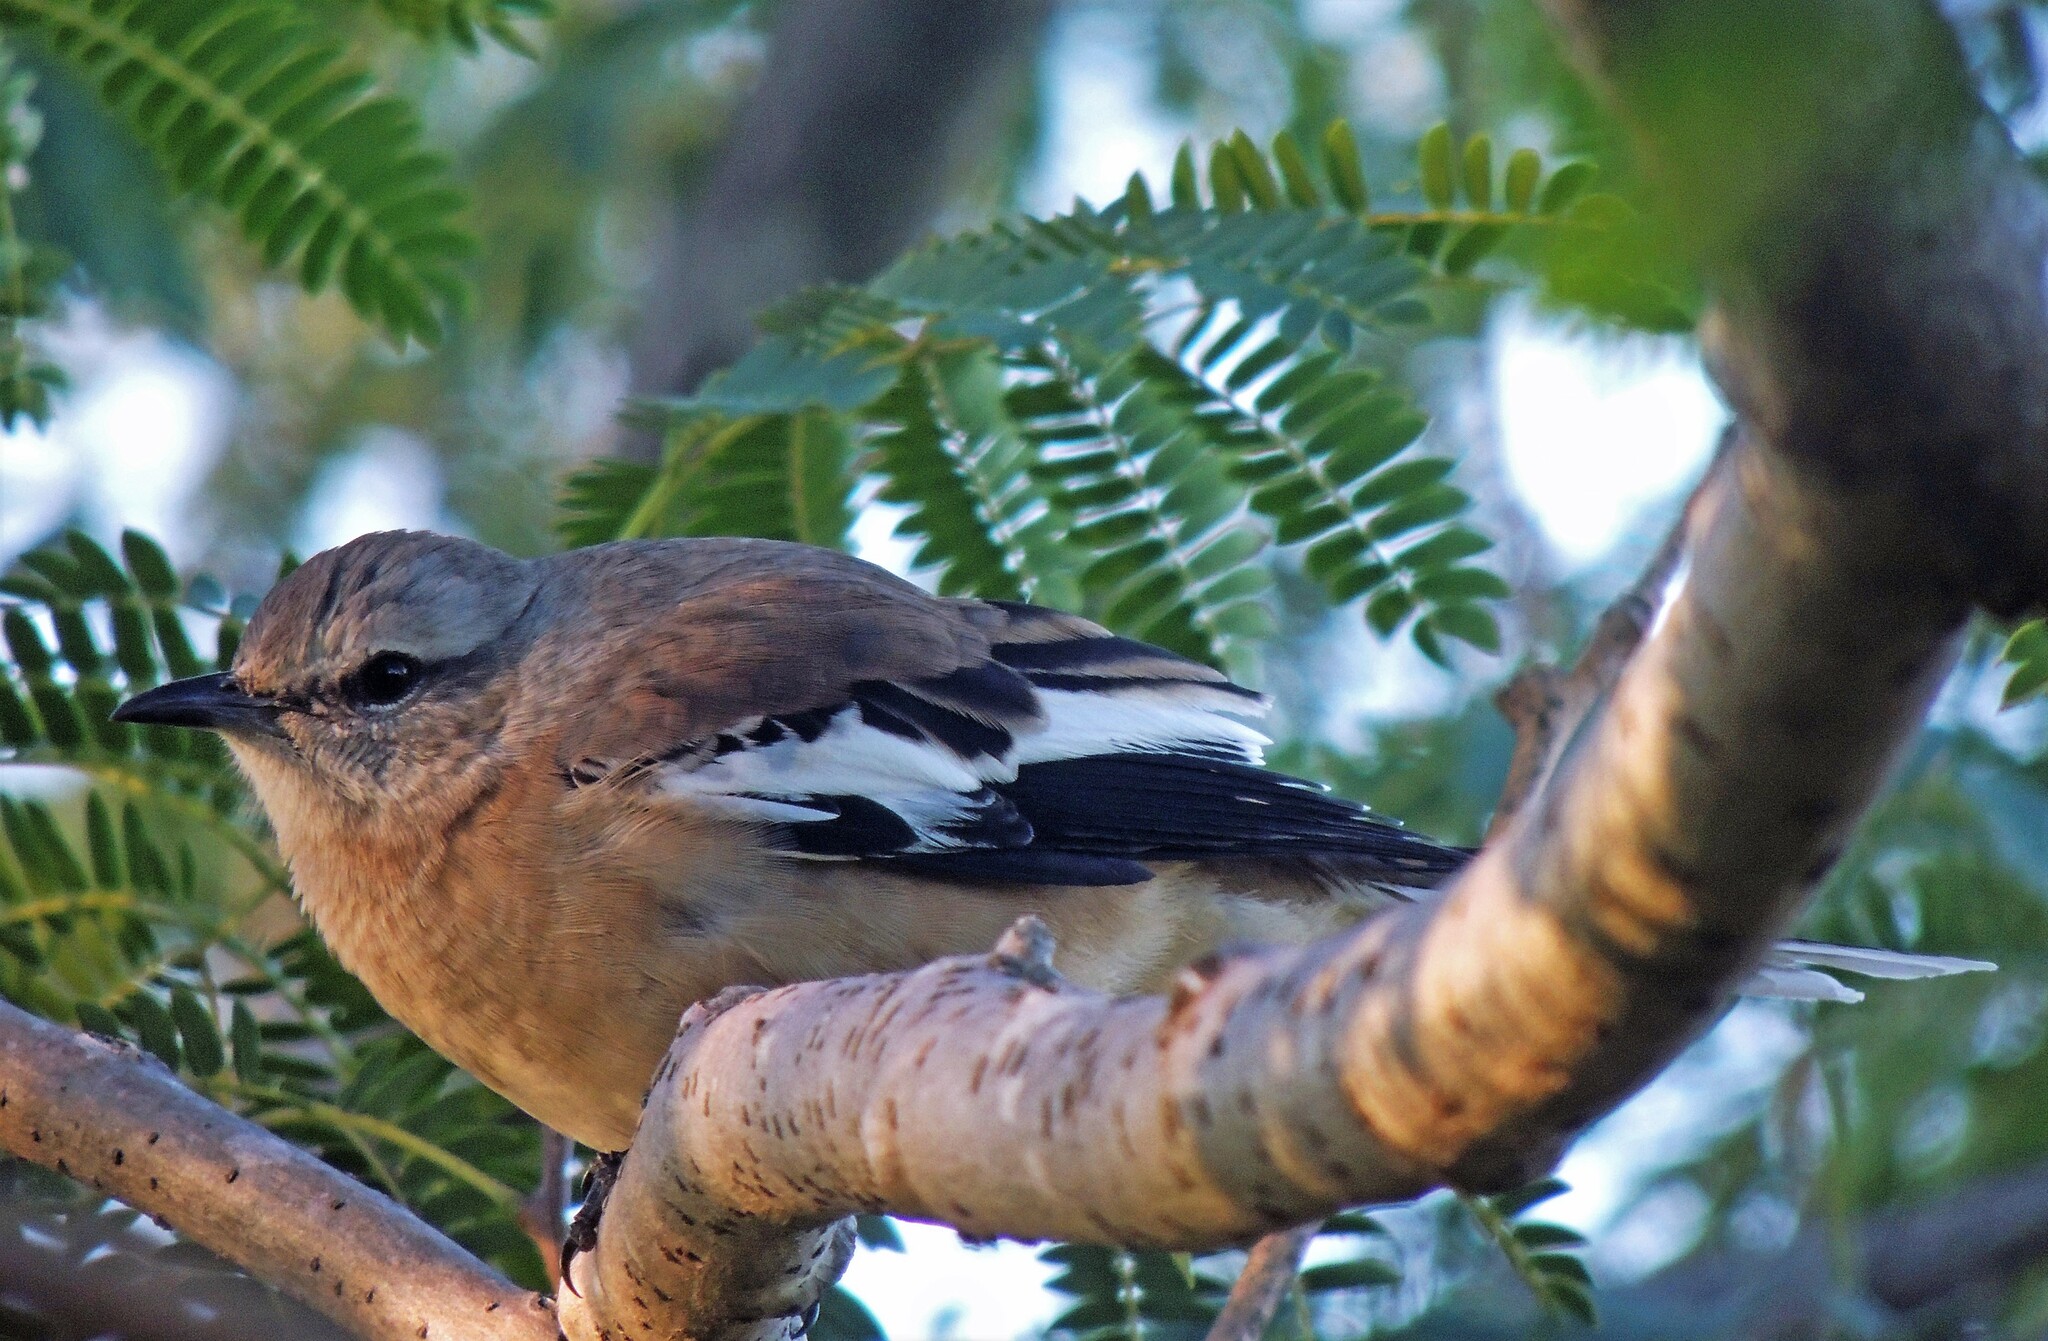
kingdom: Animalia
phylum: Chordata
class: Aves
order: Passeriformes
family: Mimidae
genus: Mimus
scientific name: Mimus triurus
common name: White-banded mockingbird
